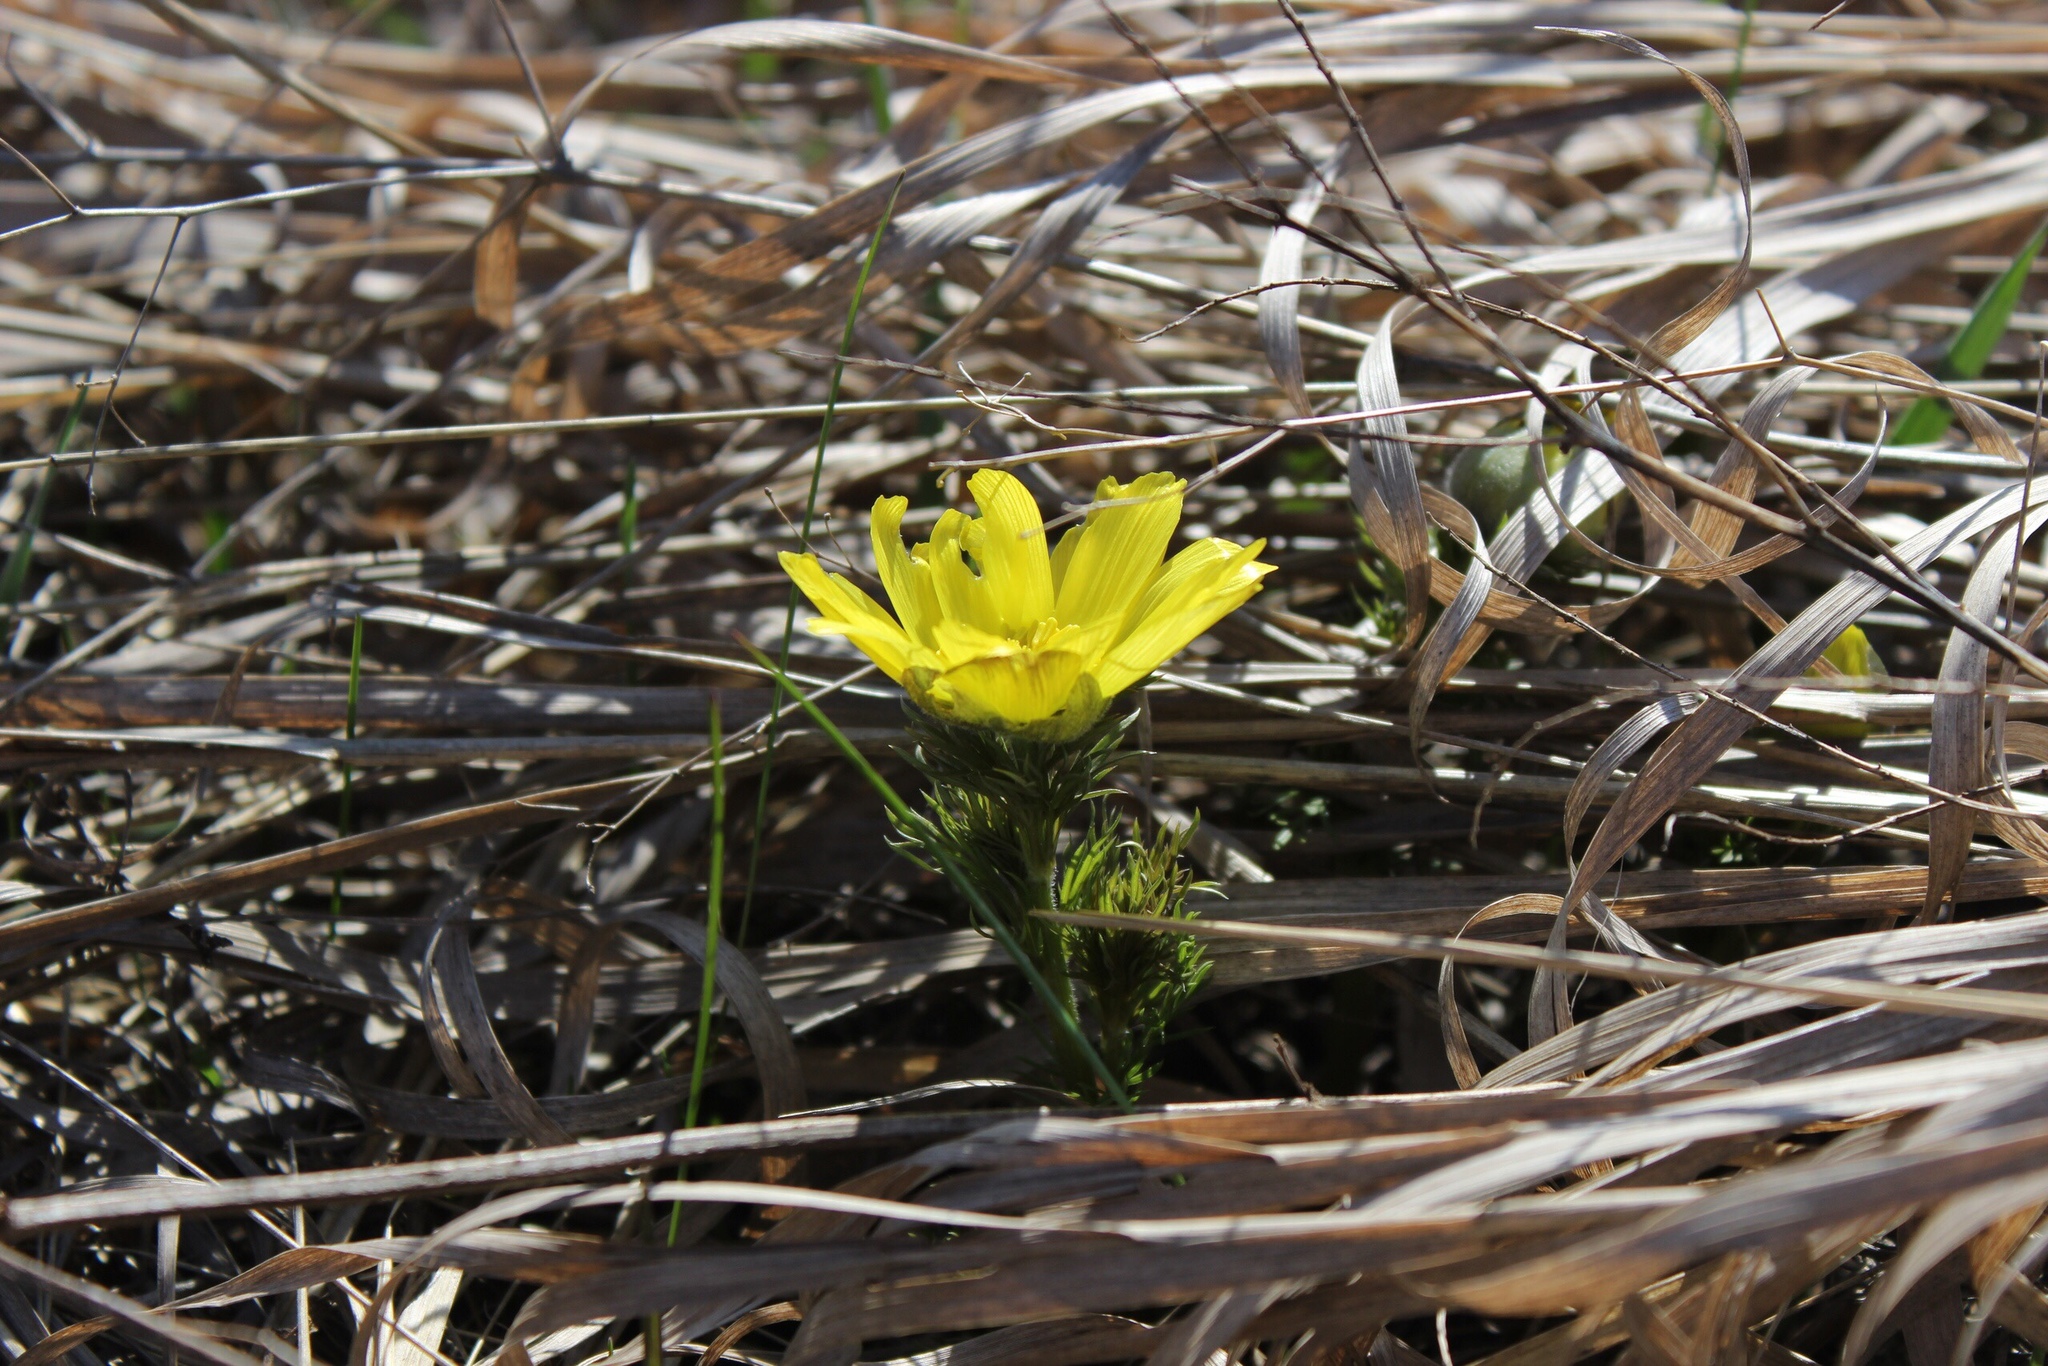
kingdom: Plantae
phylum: Tracheophyta
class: Magnoliopsida
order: Ranunculales
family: Ranunculaceae
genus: Adonis
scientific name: Adonis vernalis
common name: Yellow pheasants-eye
